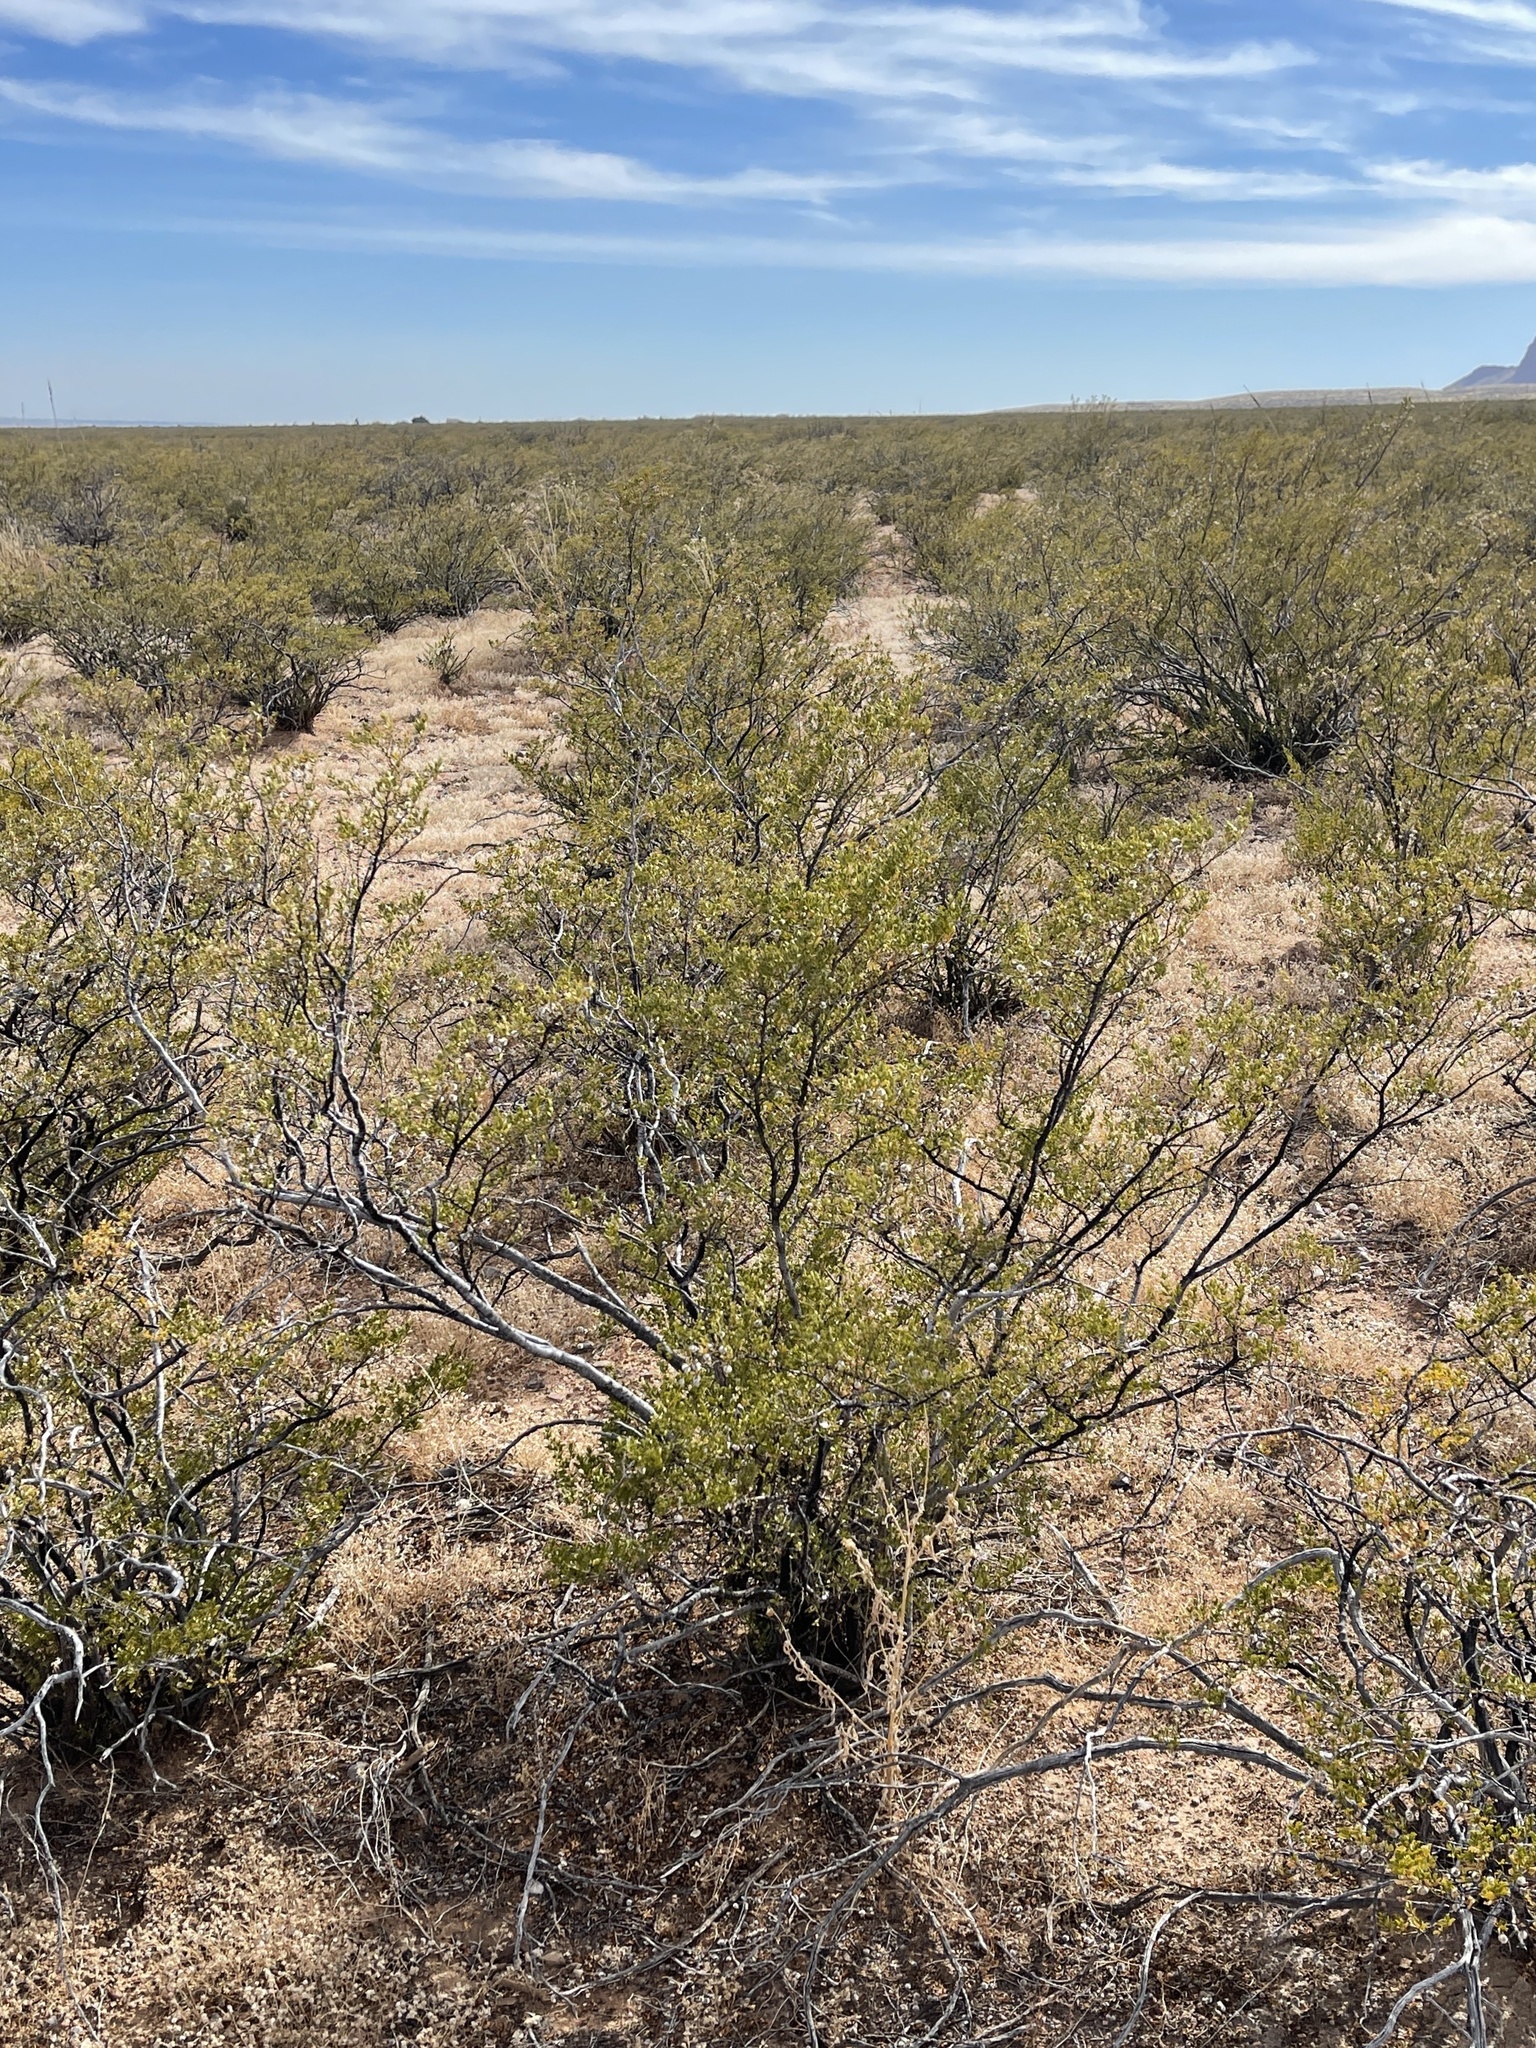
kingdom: Plantae
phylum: Tracheophyta
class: Magnoliopsida
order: Zygophyllales
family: Zygophyllaceae
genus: Larrea
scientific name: Larrea tridentata
